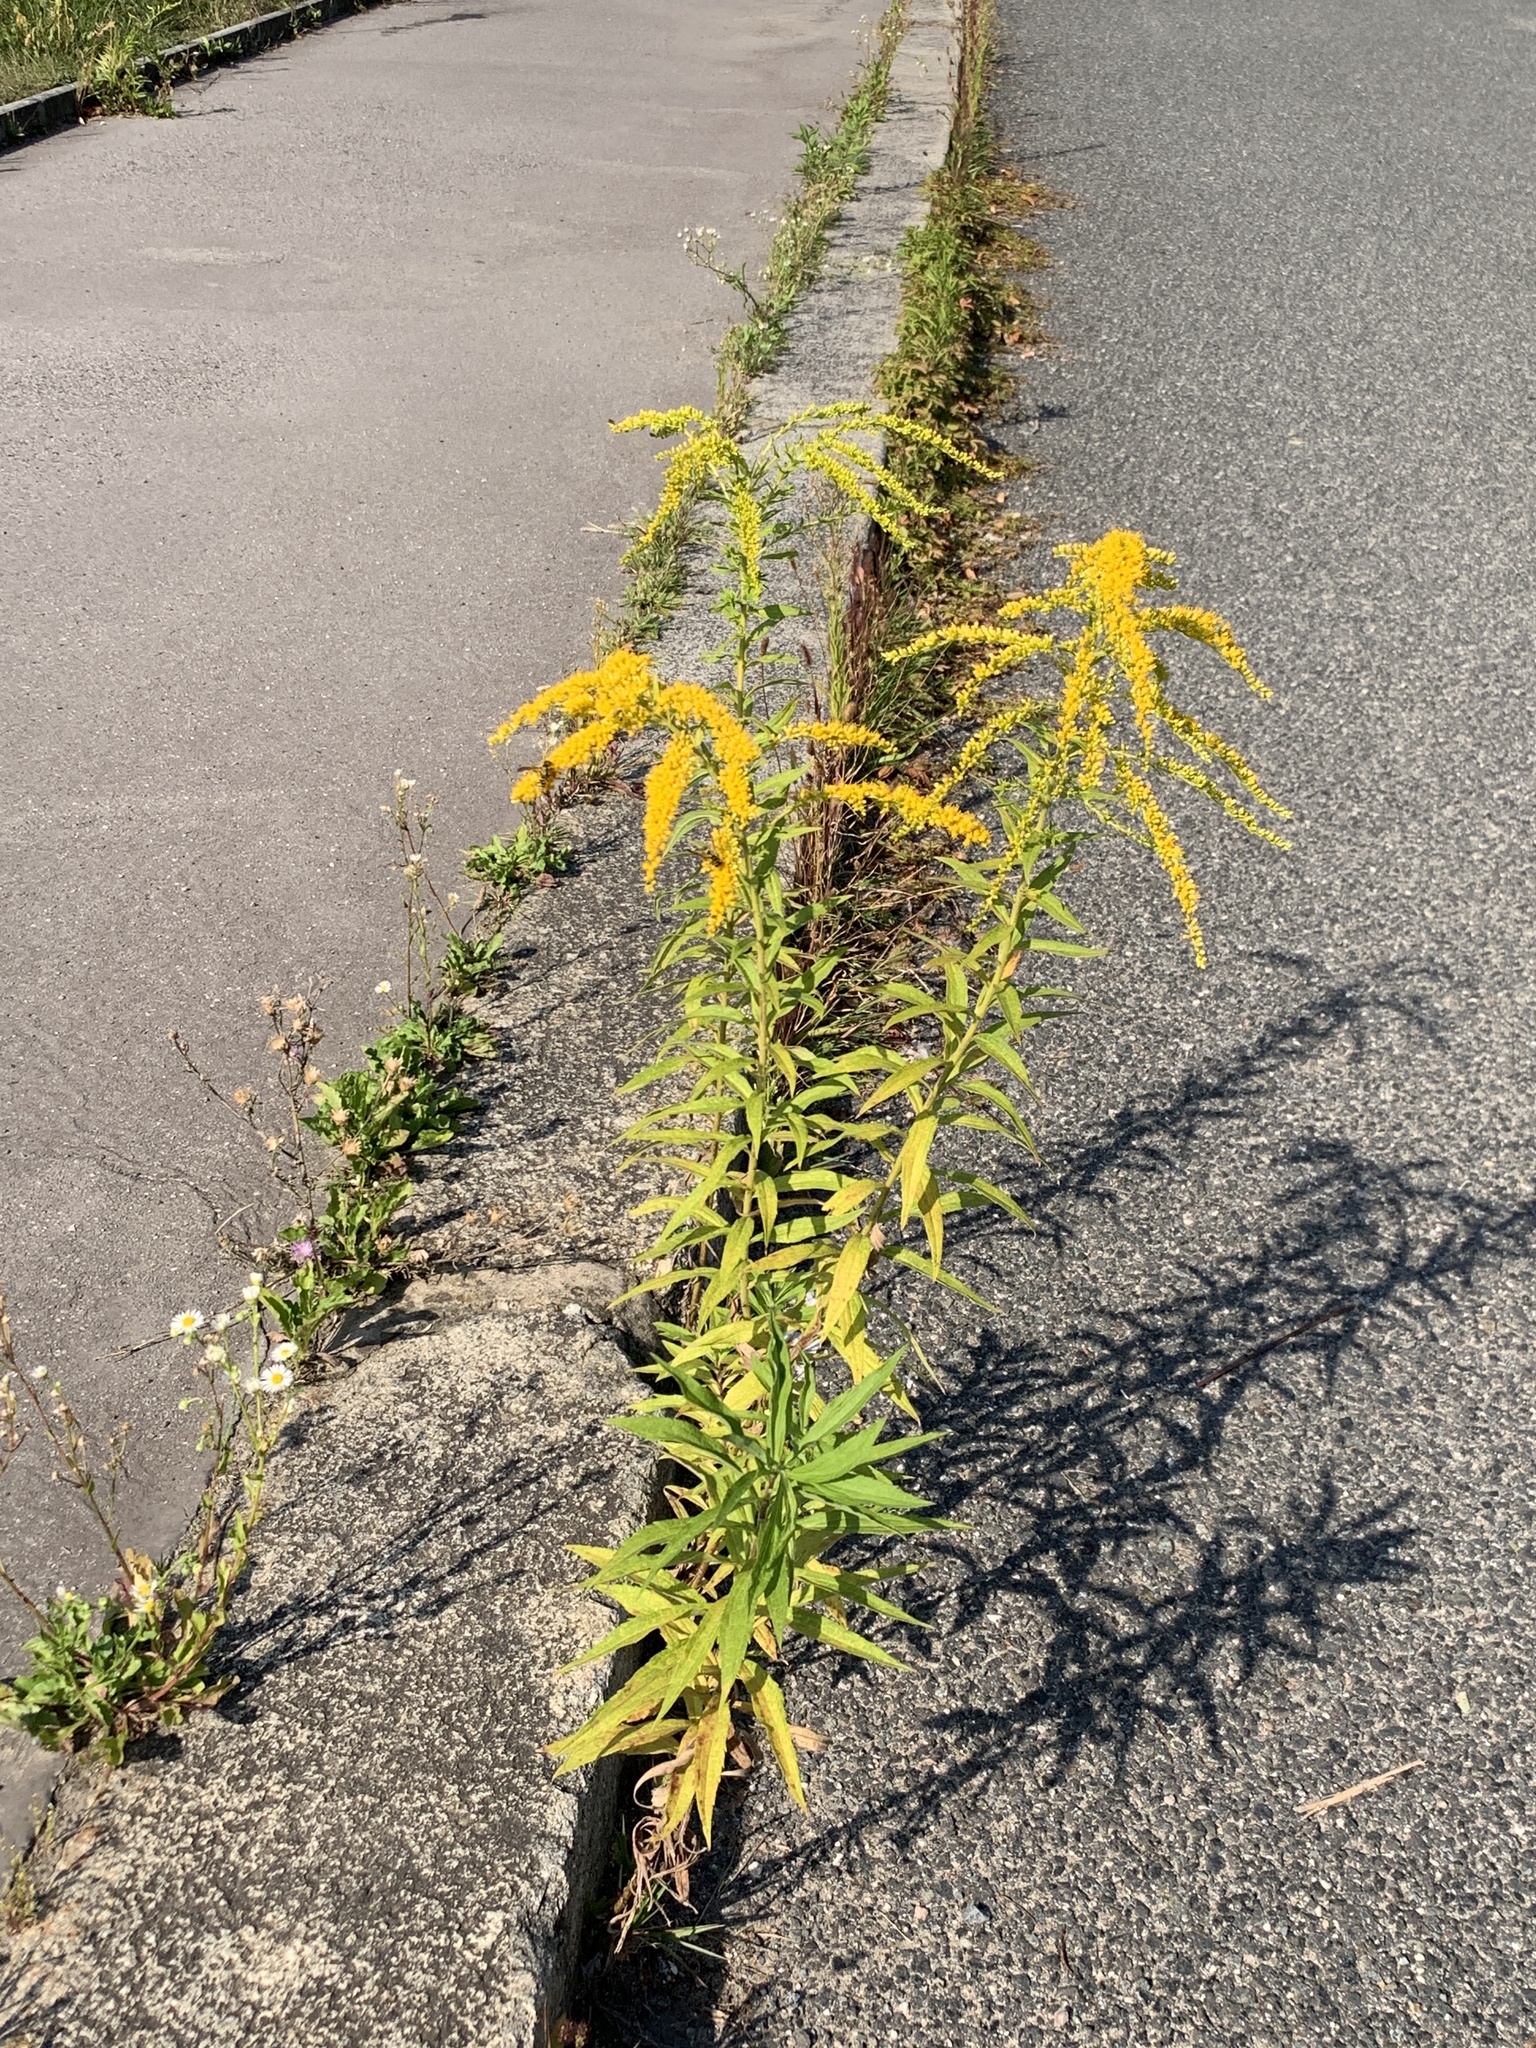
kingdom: Plantae
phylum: Tracheophyta
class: Magnoliopsida
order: Asterales
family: Asteraceae
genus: Solidago
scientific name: Solidago canadensis
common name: Canada goldenrod
